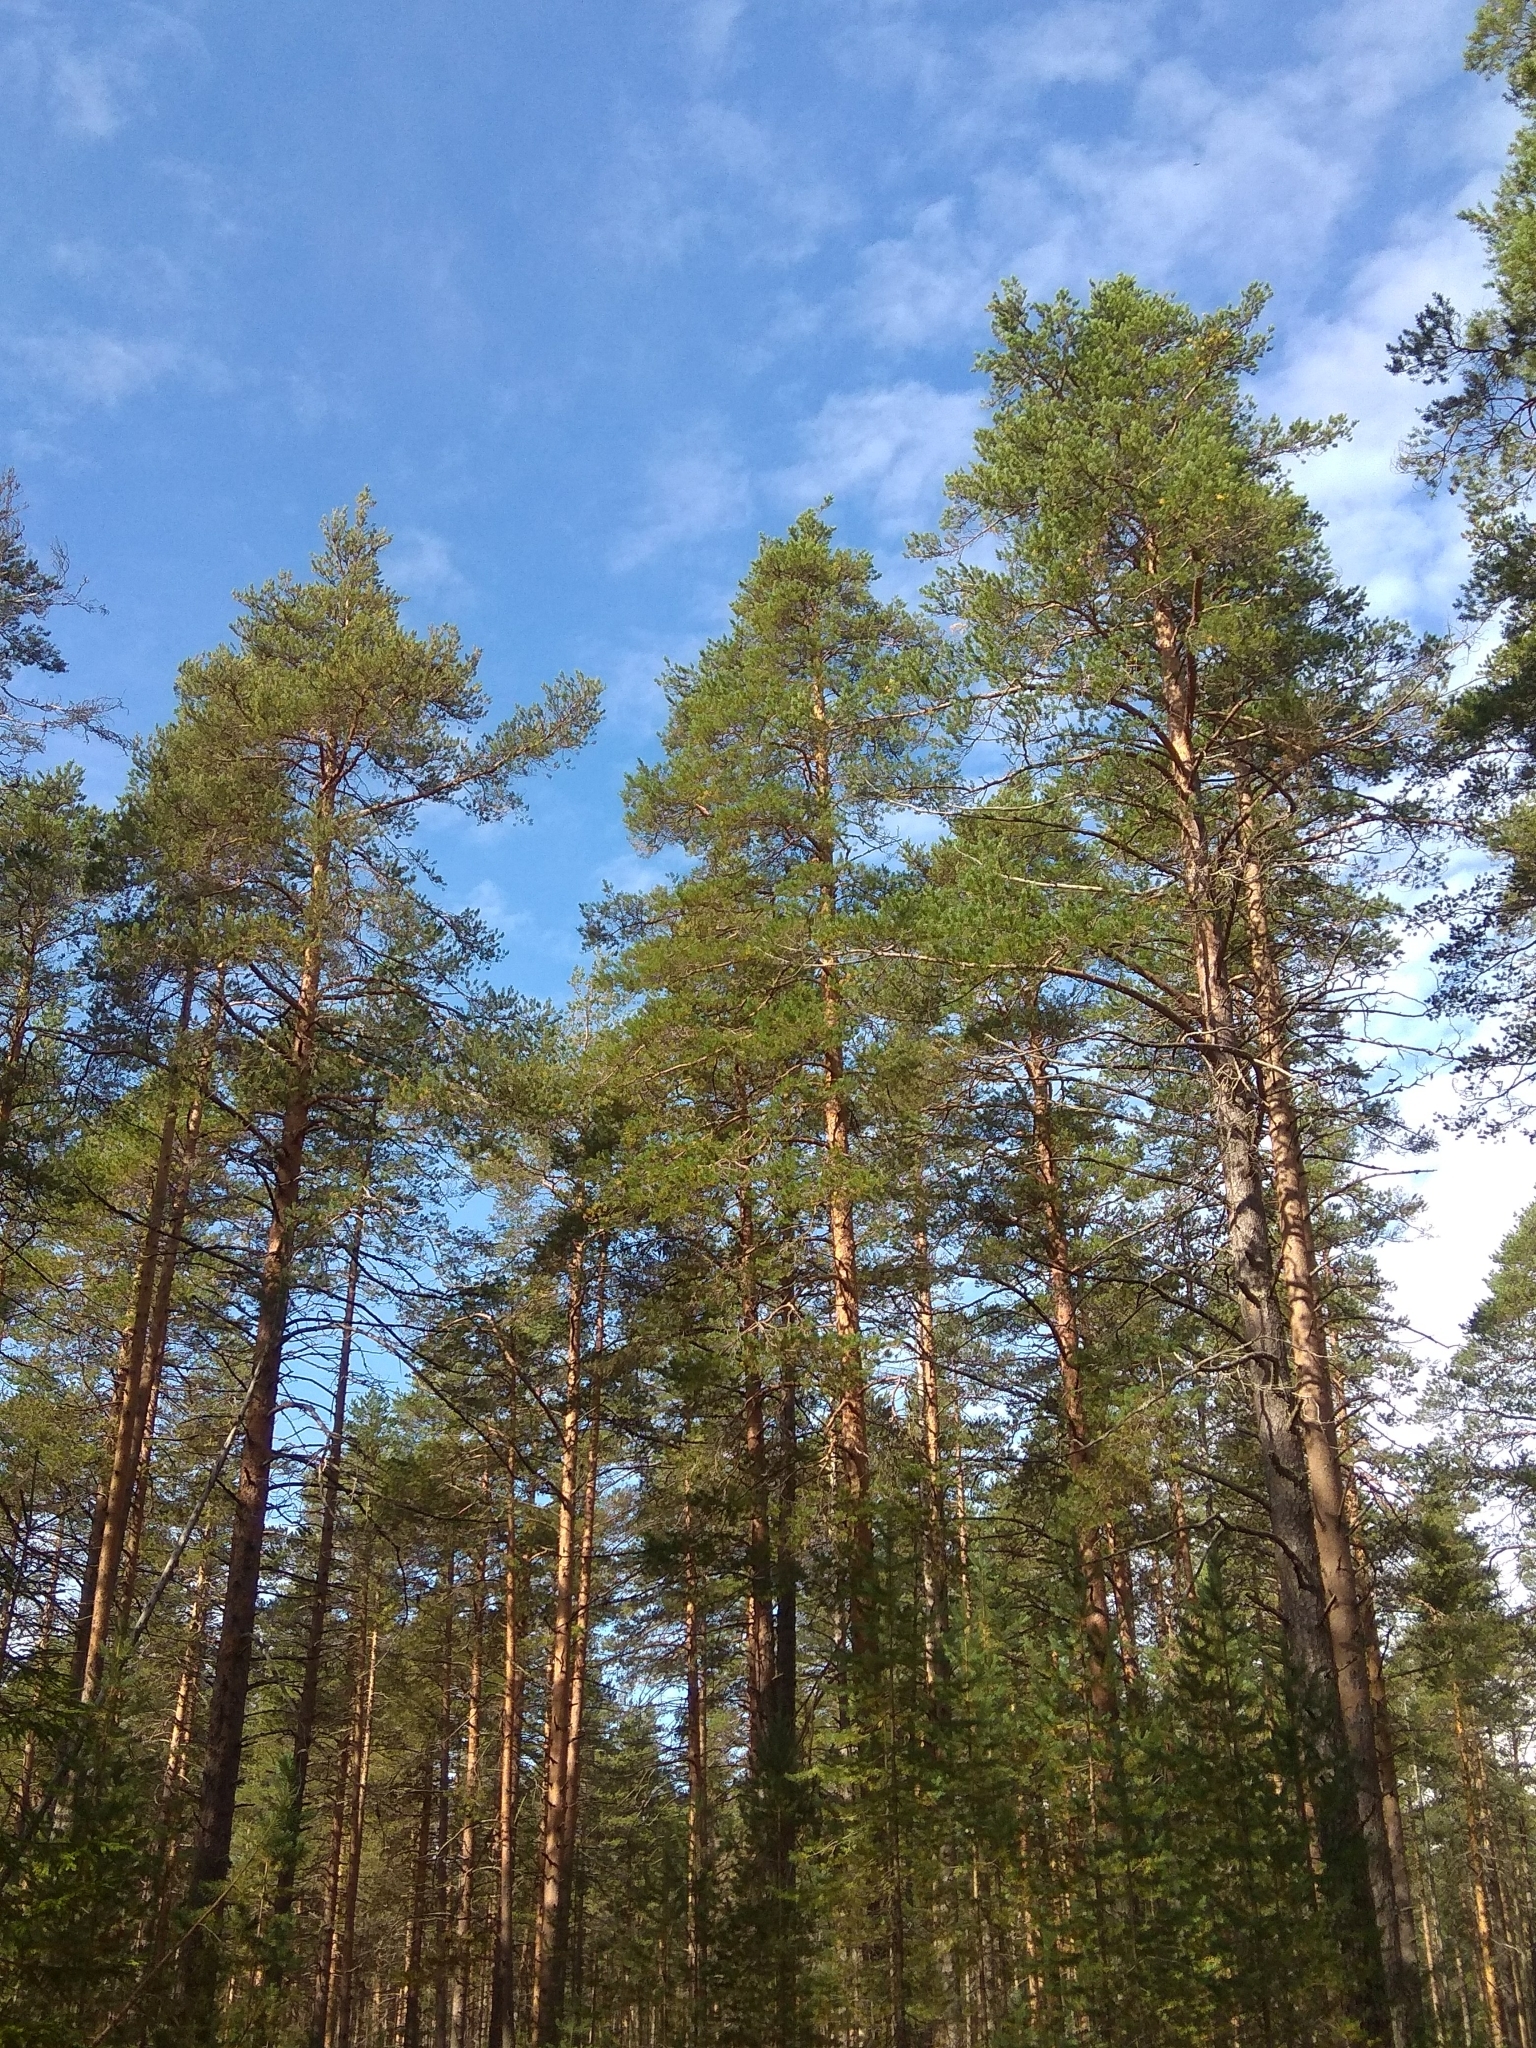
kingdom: Plantae
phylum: Tracheophyta
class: Pinopsida
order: Pinales
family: Pinaceae
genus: Pinus
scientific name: Pinus sylvestris
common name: Scots pine
